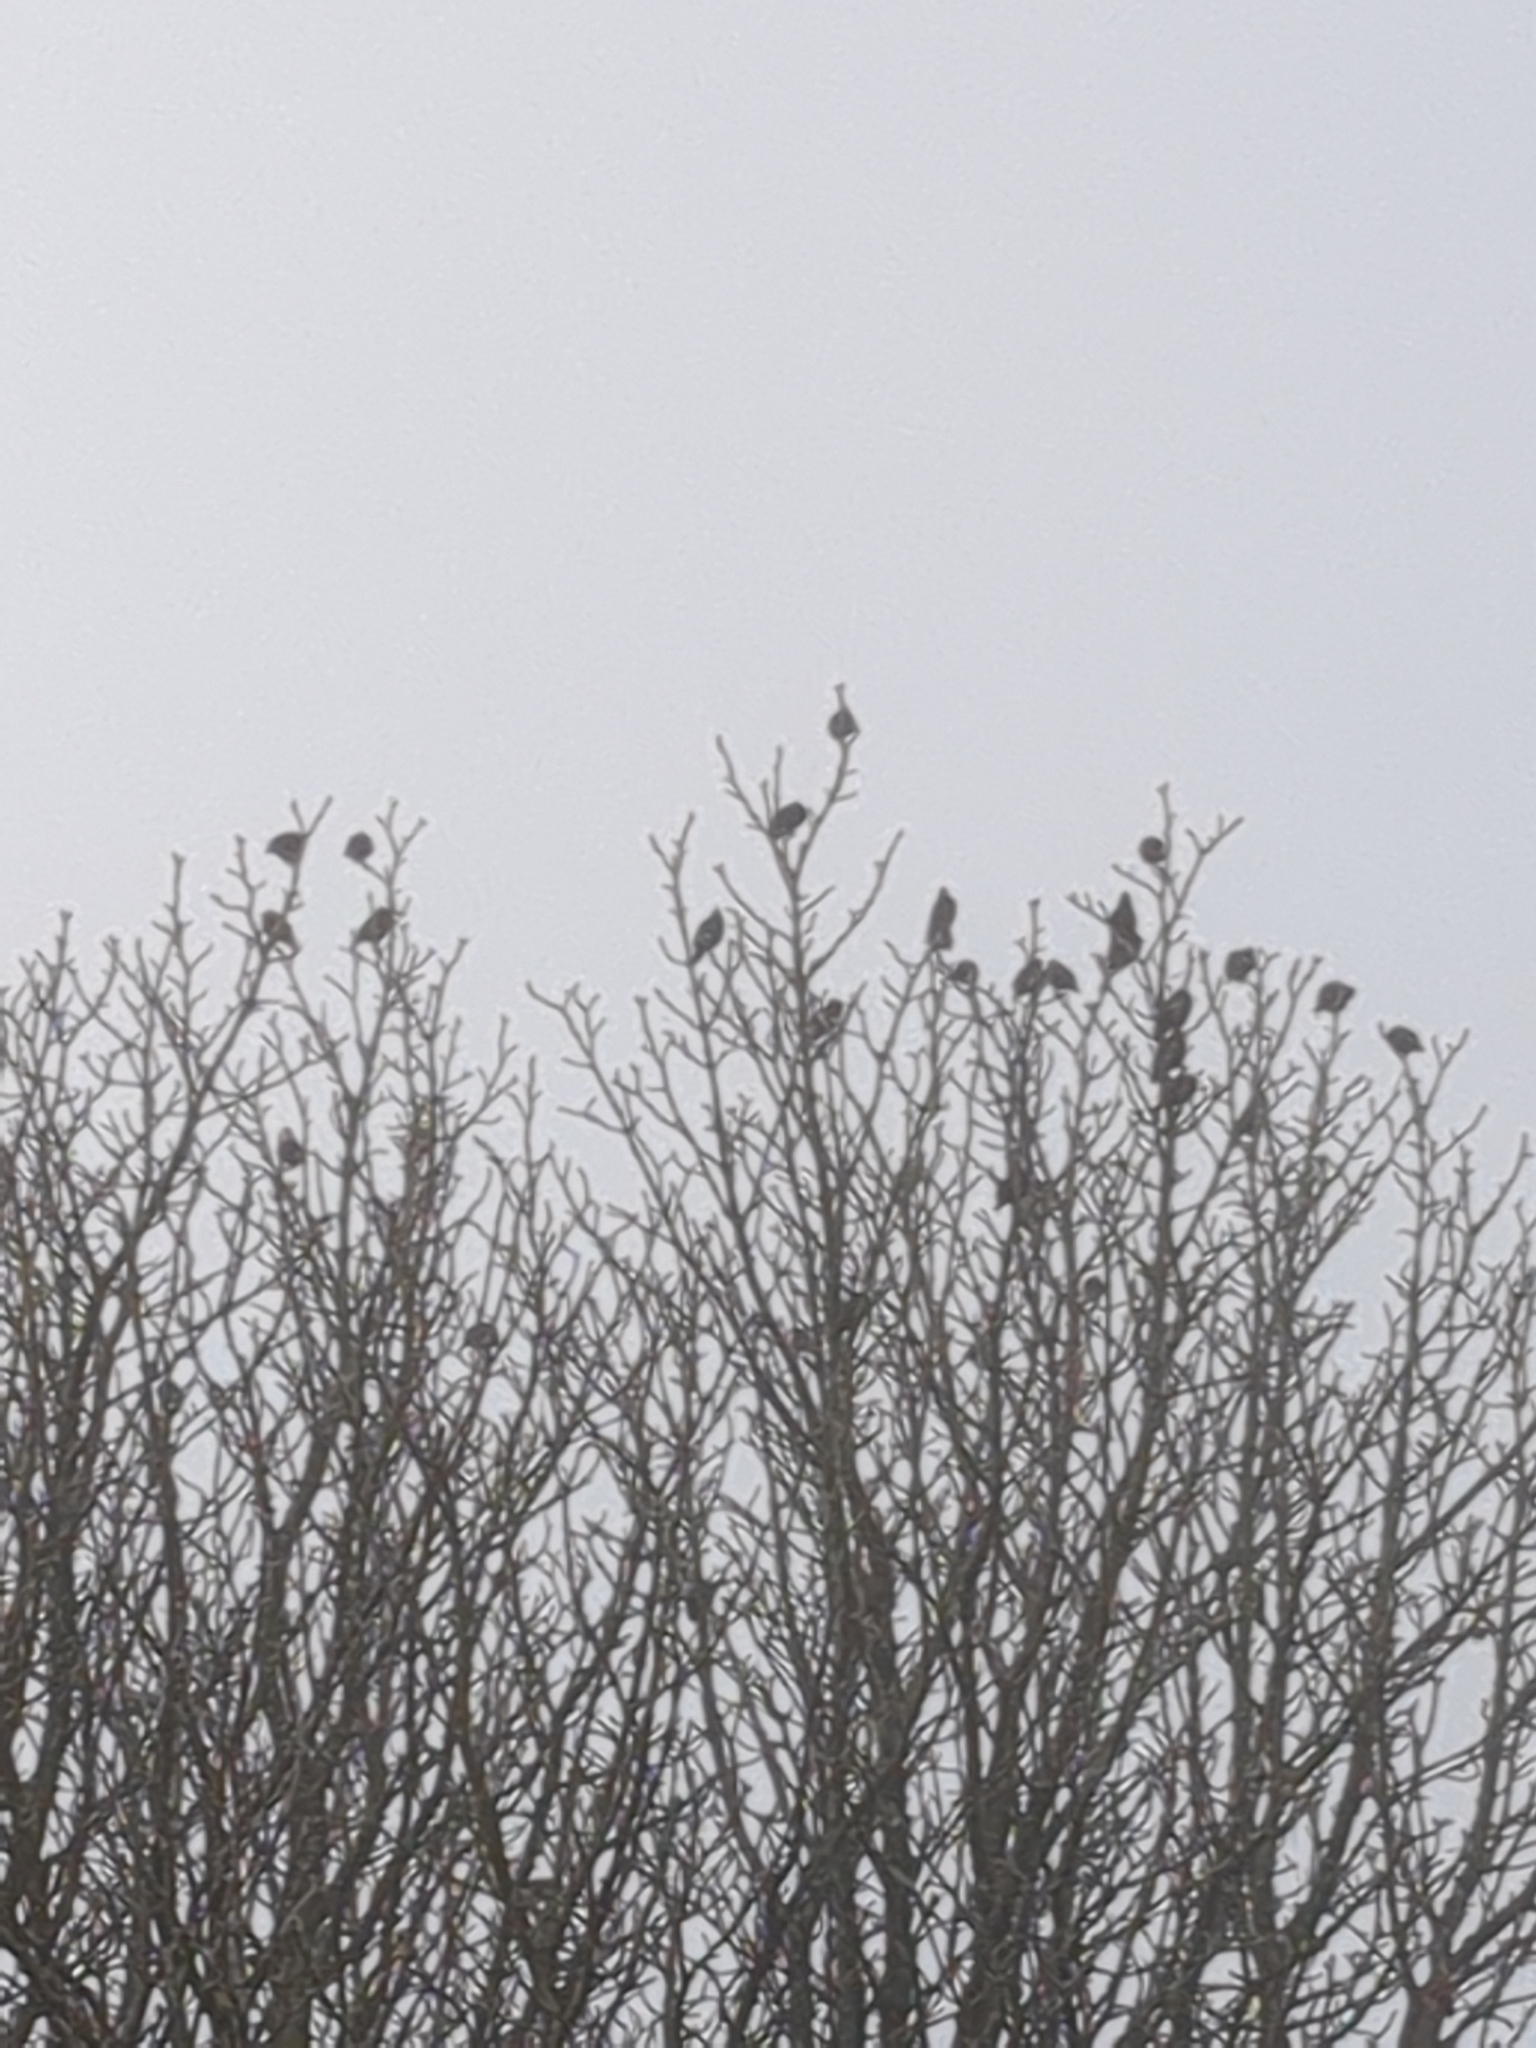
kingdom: Animalia
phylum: Chordata
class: Aves
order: Passeriformes
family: Sturnidae
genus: Sturnus
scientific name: Sturnus vulgaris
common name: Common starling
